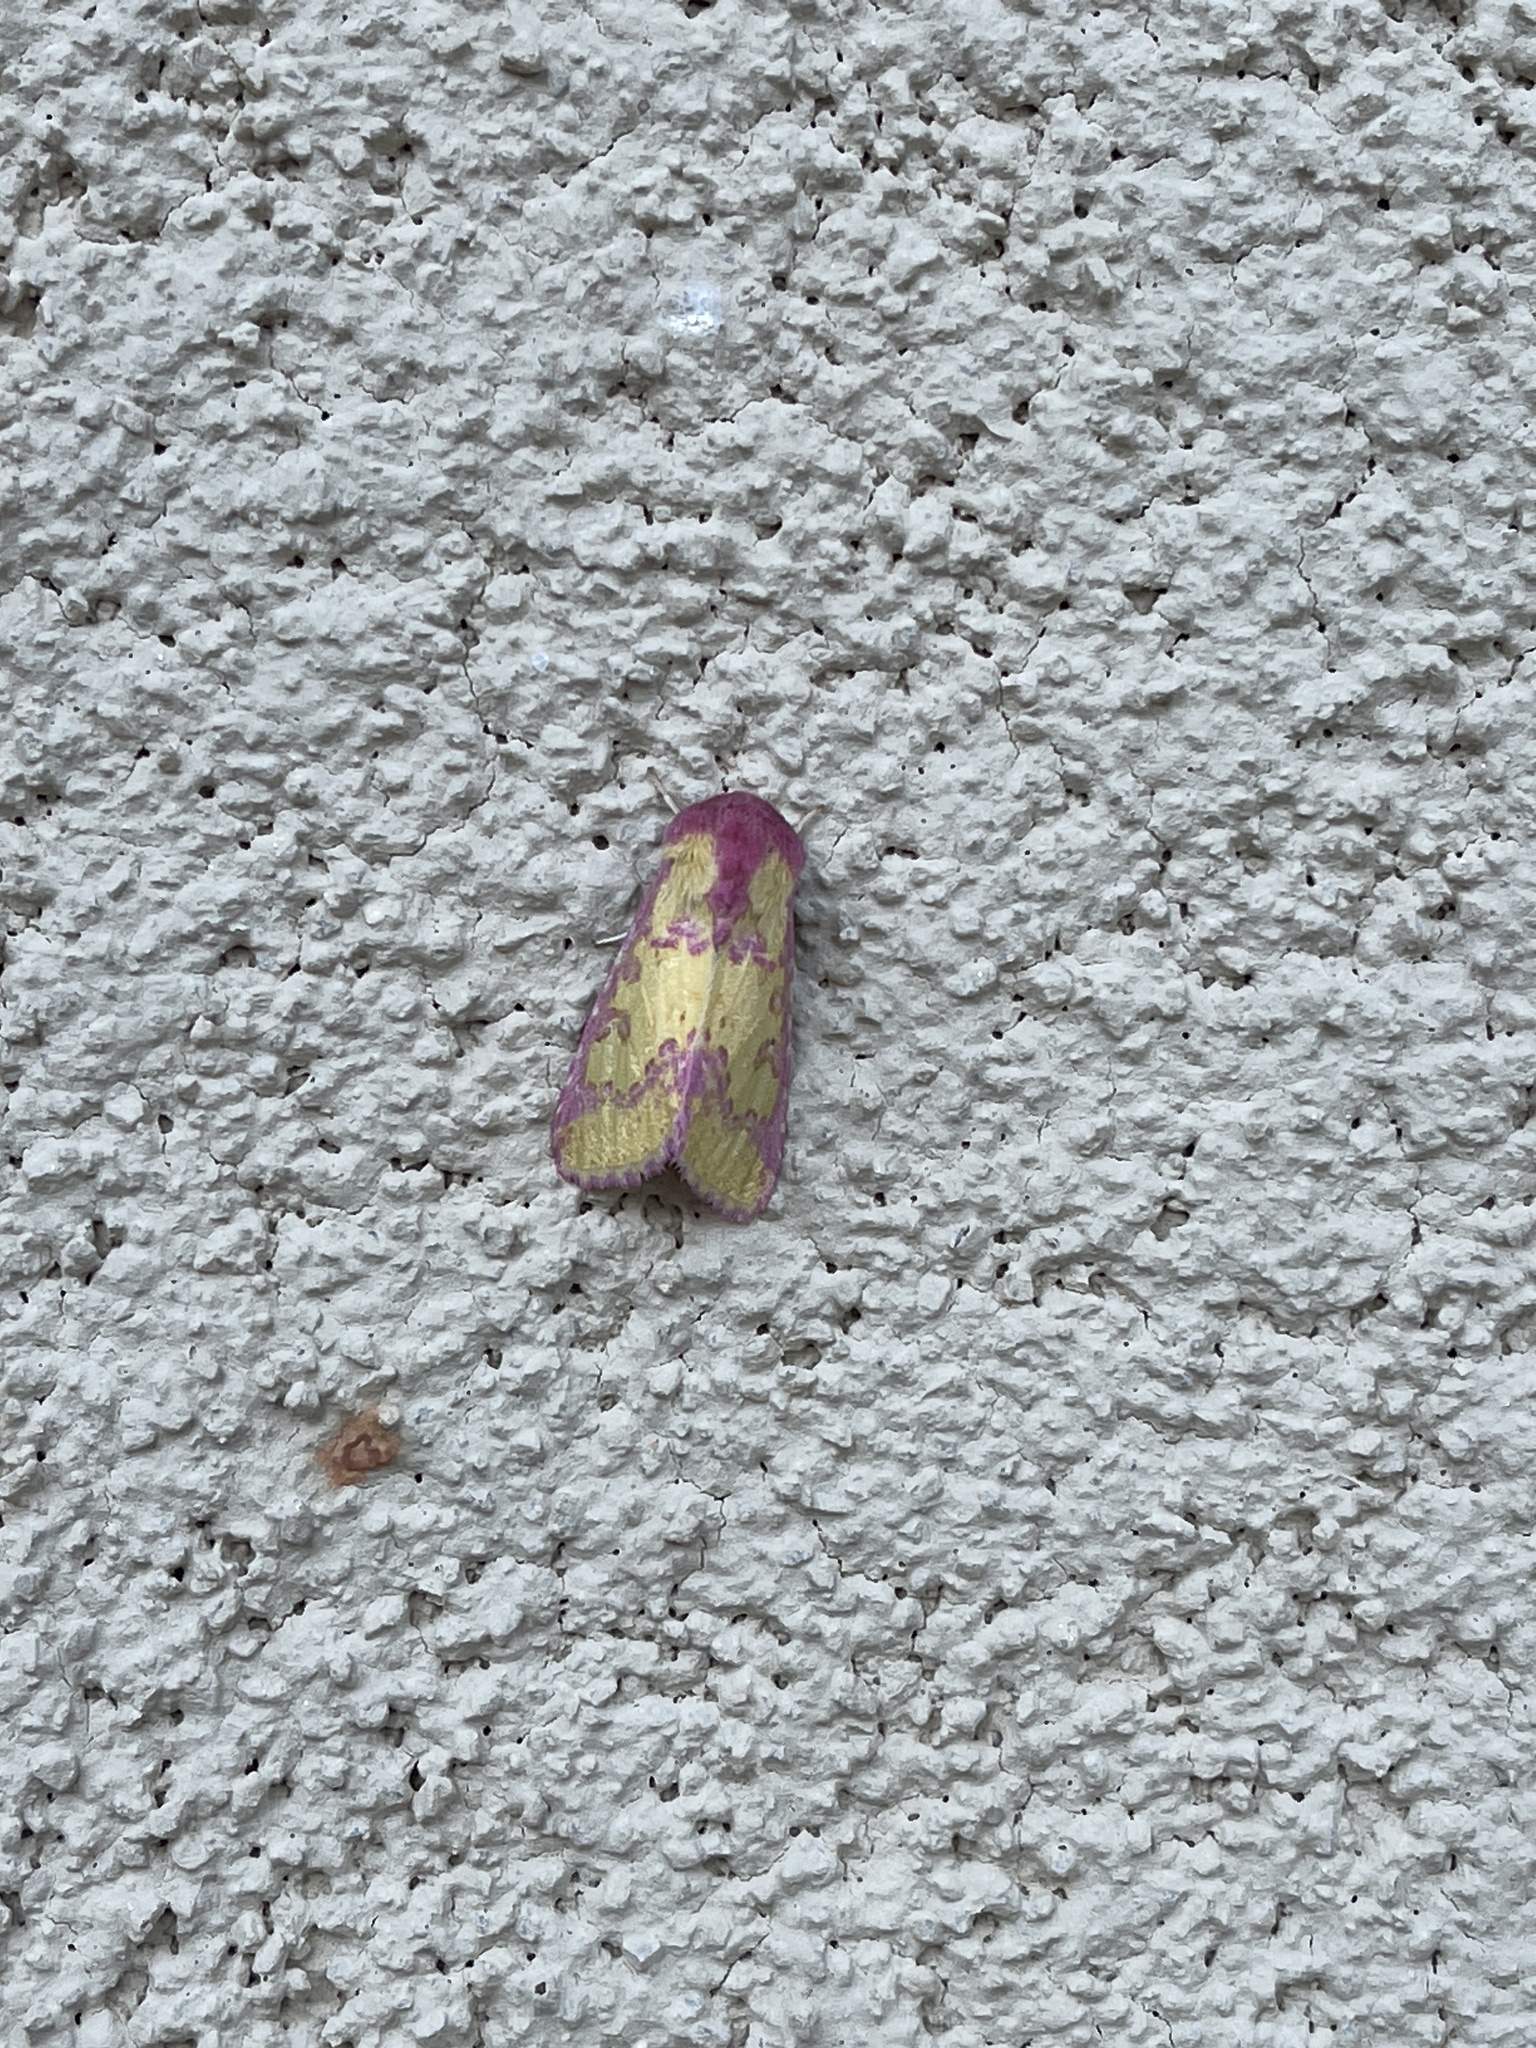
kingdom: Animalia
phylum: Arthropoda
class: Insecta
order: Lepidoptera
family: Noctuidae
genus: Psectrotarsia
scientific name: Psectrotarsia suavis
